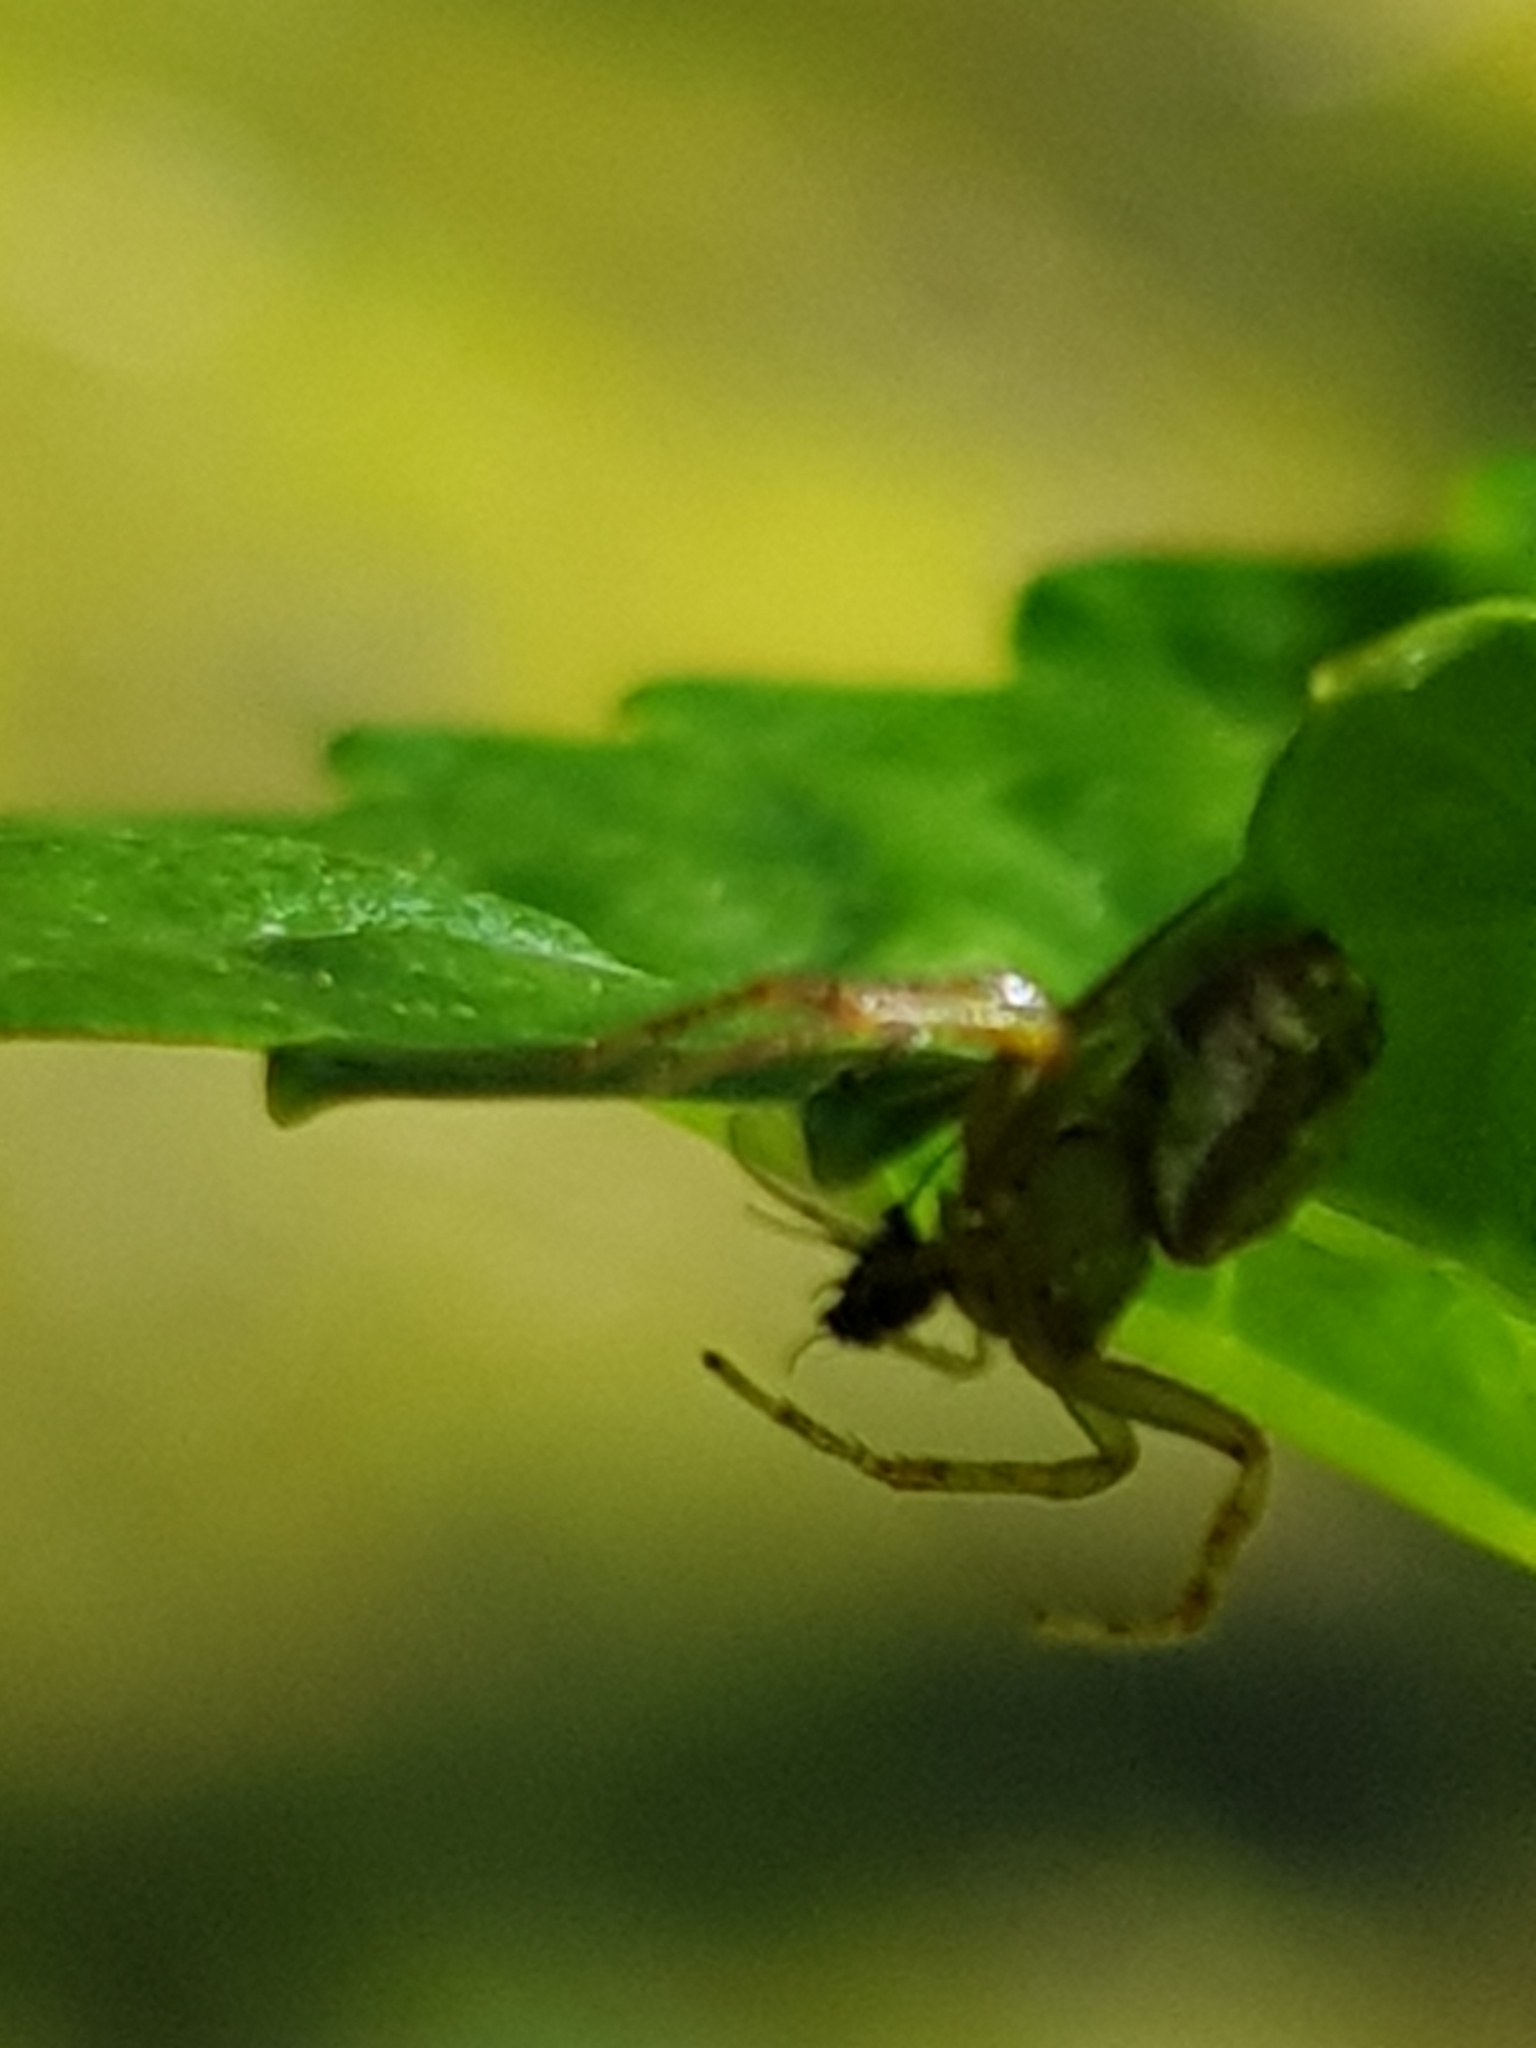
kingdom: Animalia
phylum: Arthropoda
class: Arachnida
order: Araneae
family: Thomisidae
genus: Diaea
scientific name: Diaea ambara
